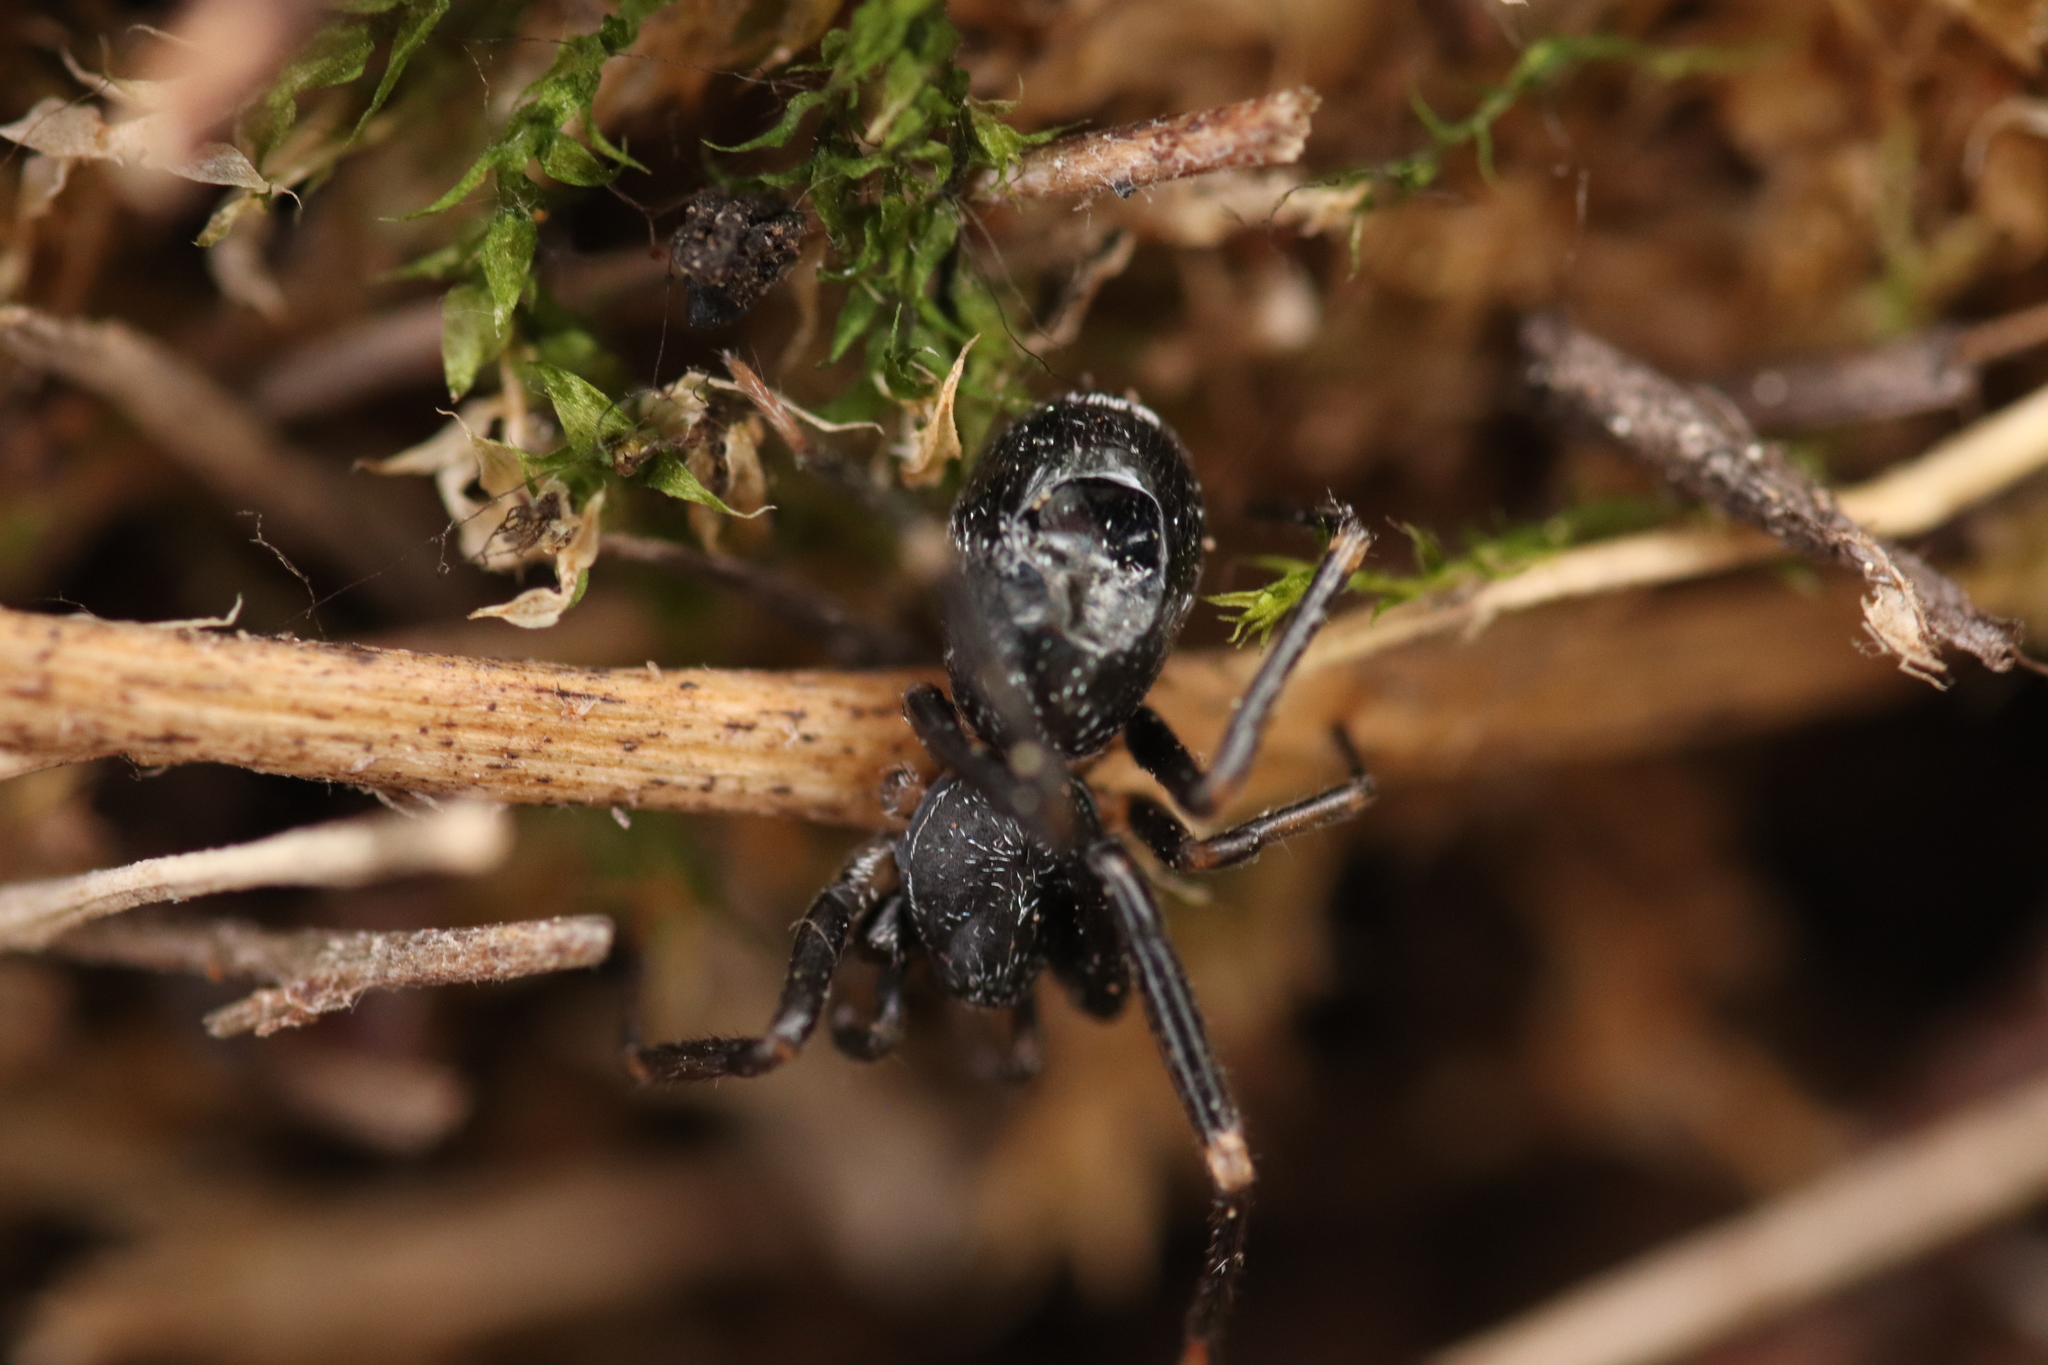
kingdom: Animalia
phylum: Arthropoda
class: Arachnida
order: Araneae
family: Phrurolithidae
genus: Liophrurillus
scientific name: Liophrurillus flavitarsis
